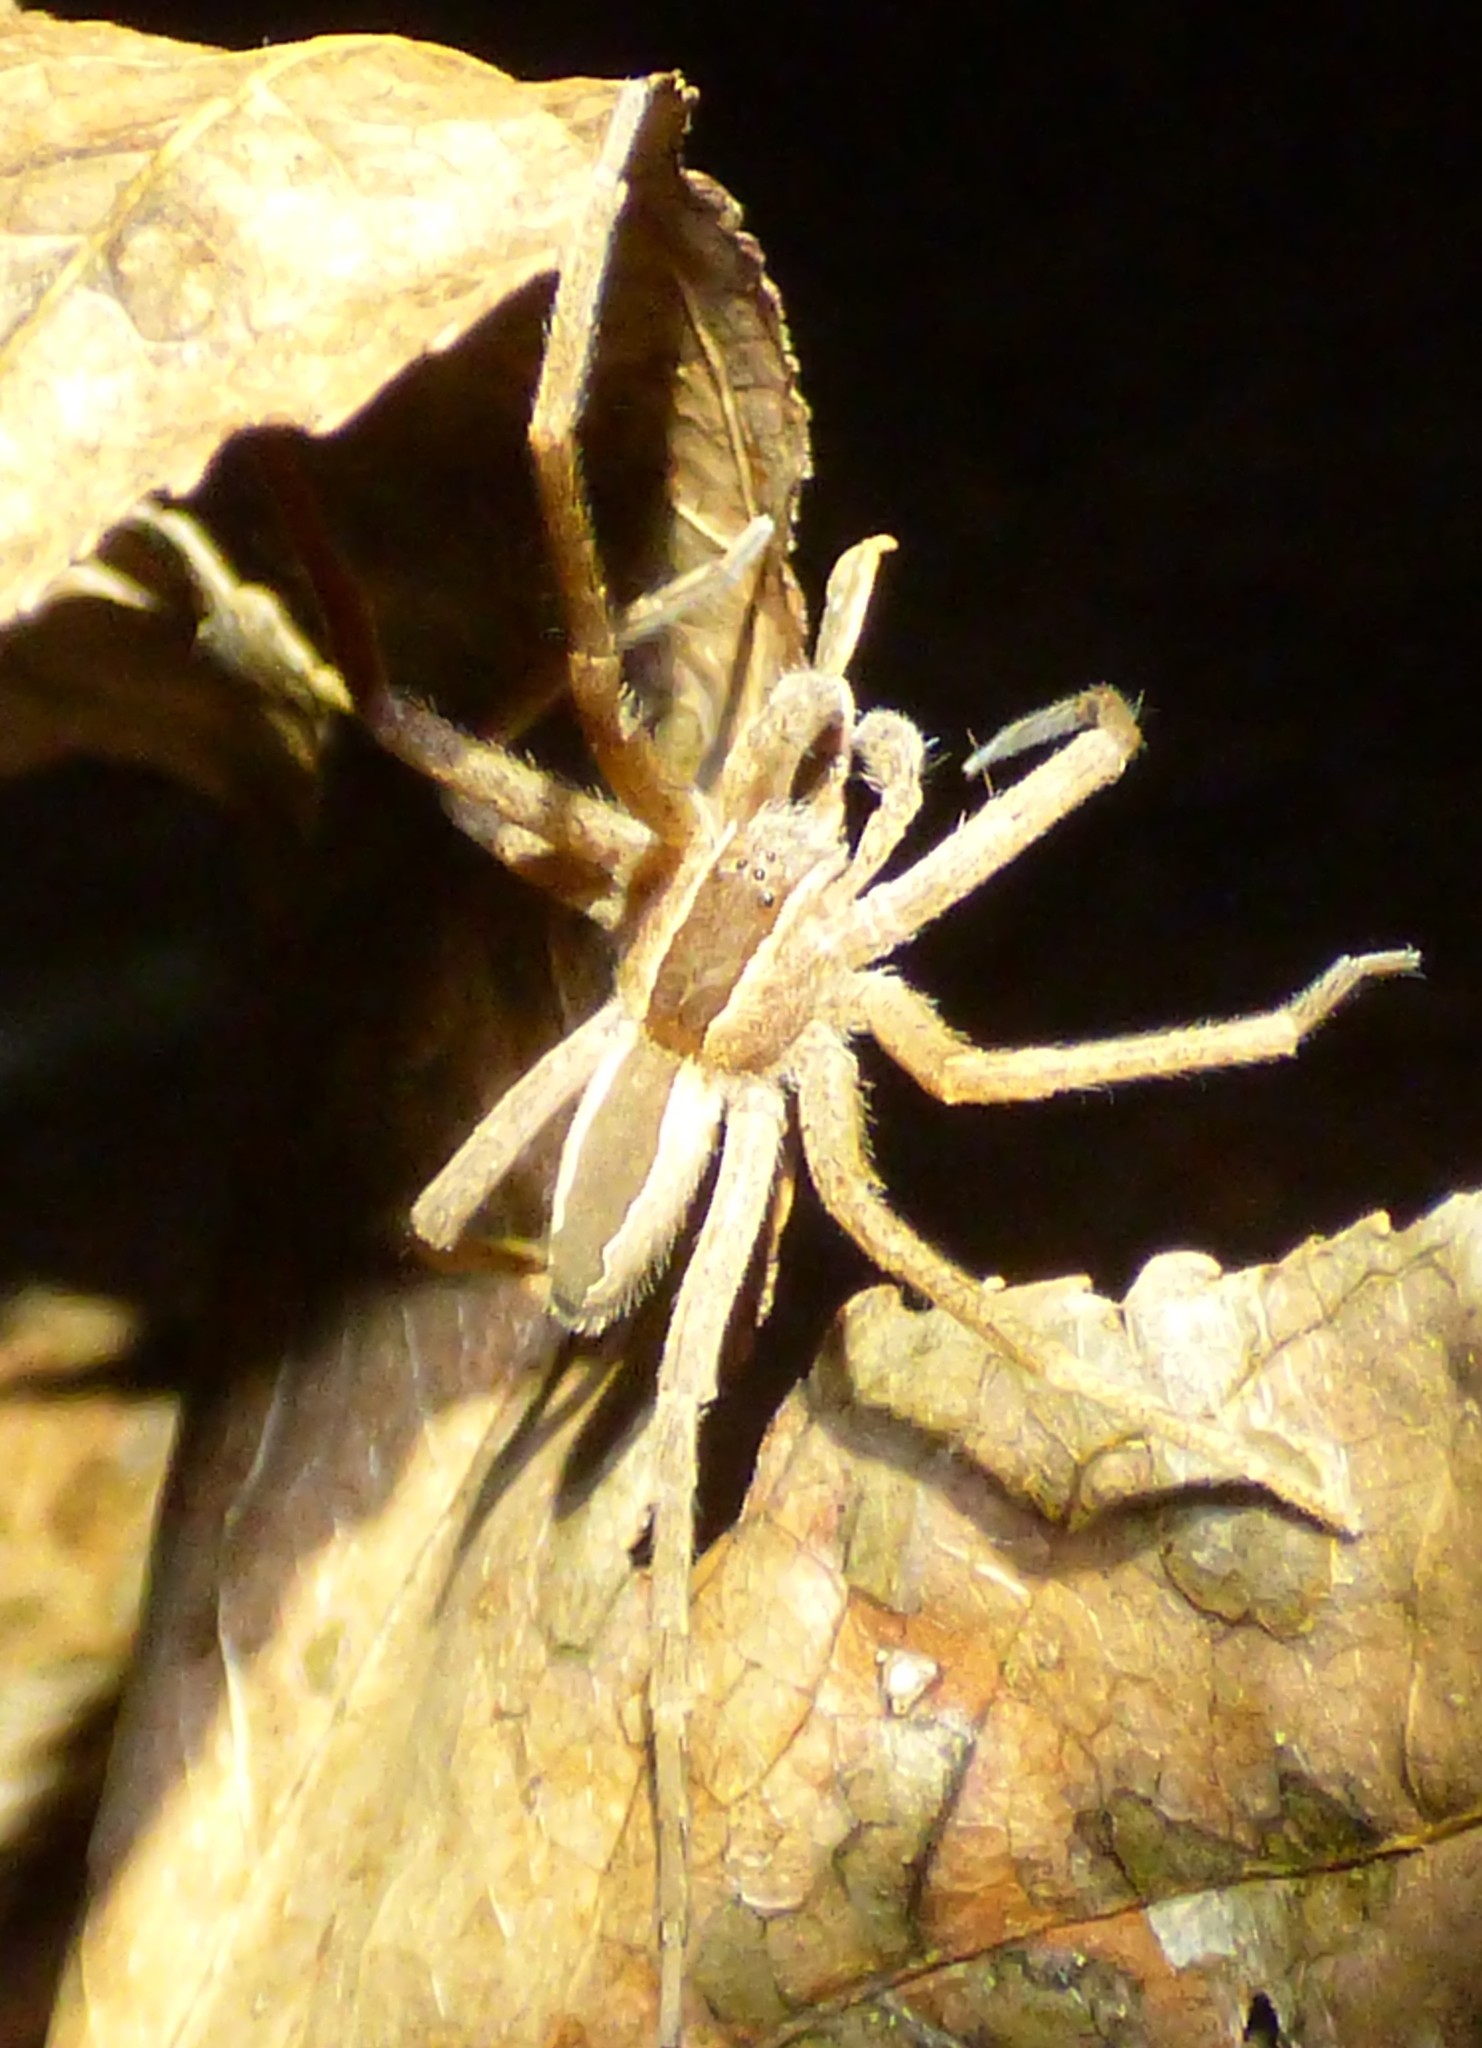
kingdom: Animalia
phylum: Arthropoda
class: Arachnida
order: Araneae
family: Pisauridae
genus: Pisaurina
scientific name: Pisaurina mira
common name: American nursery web spider
